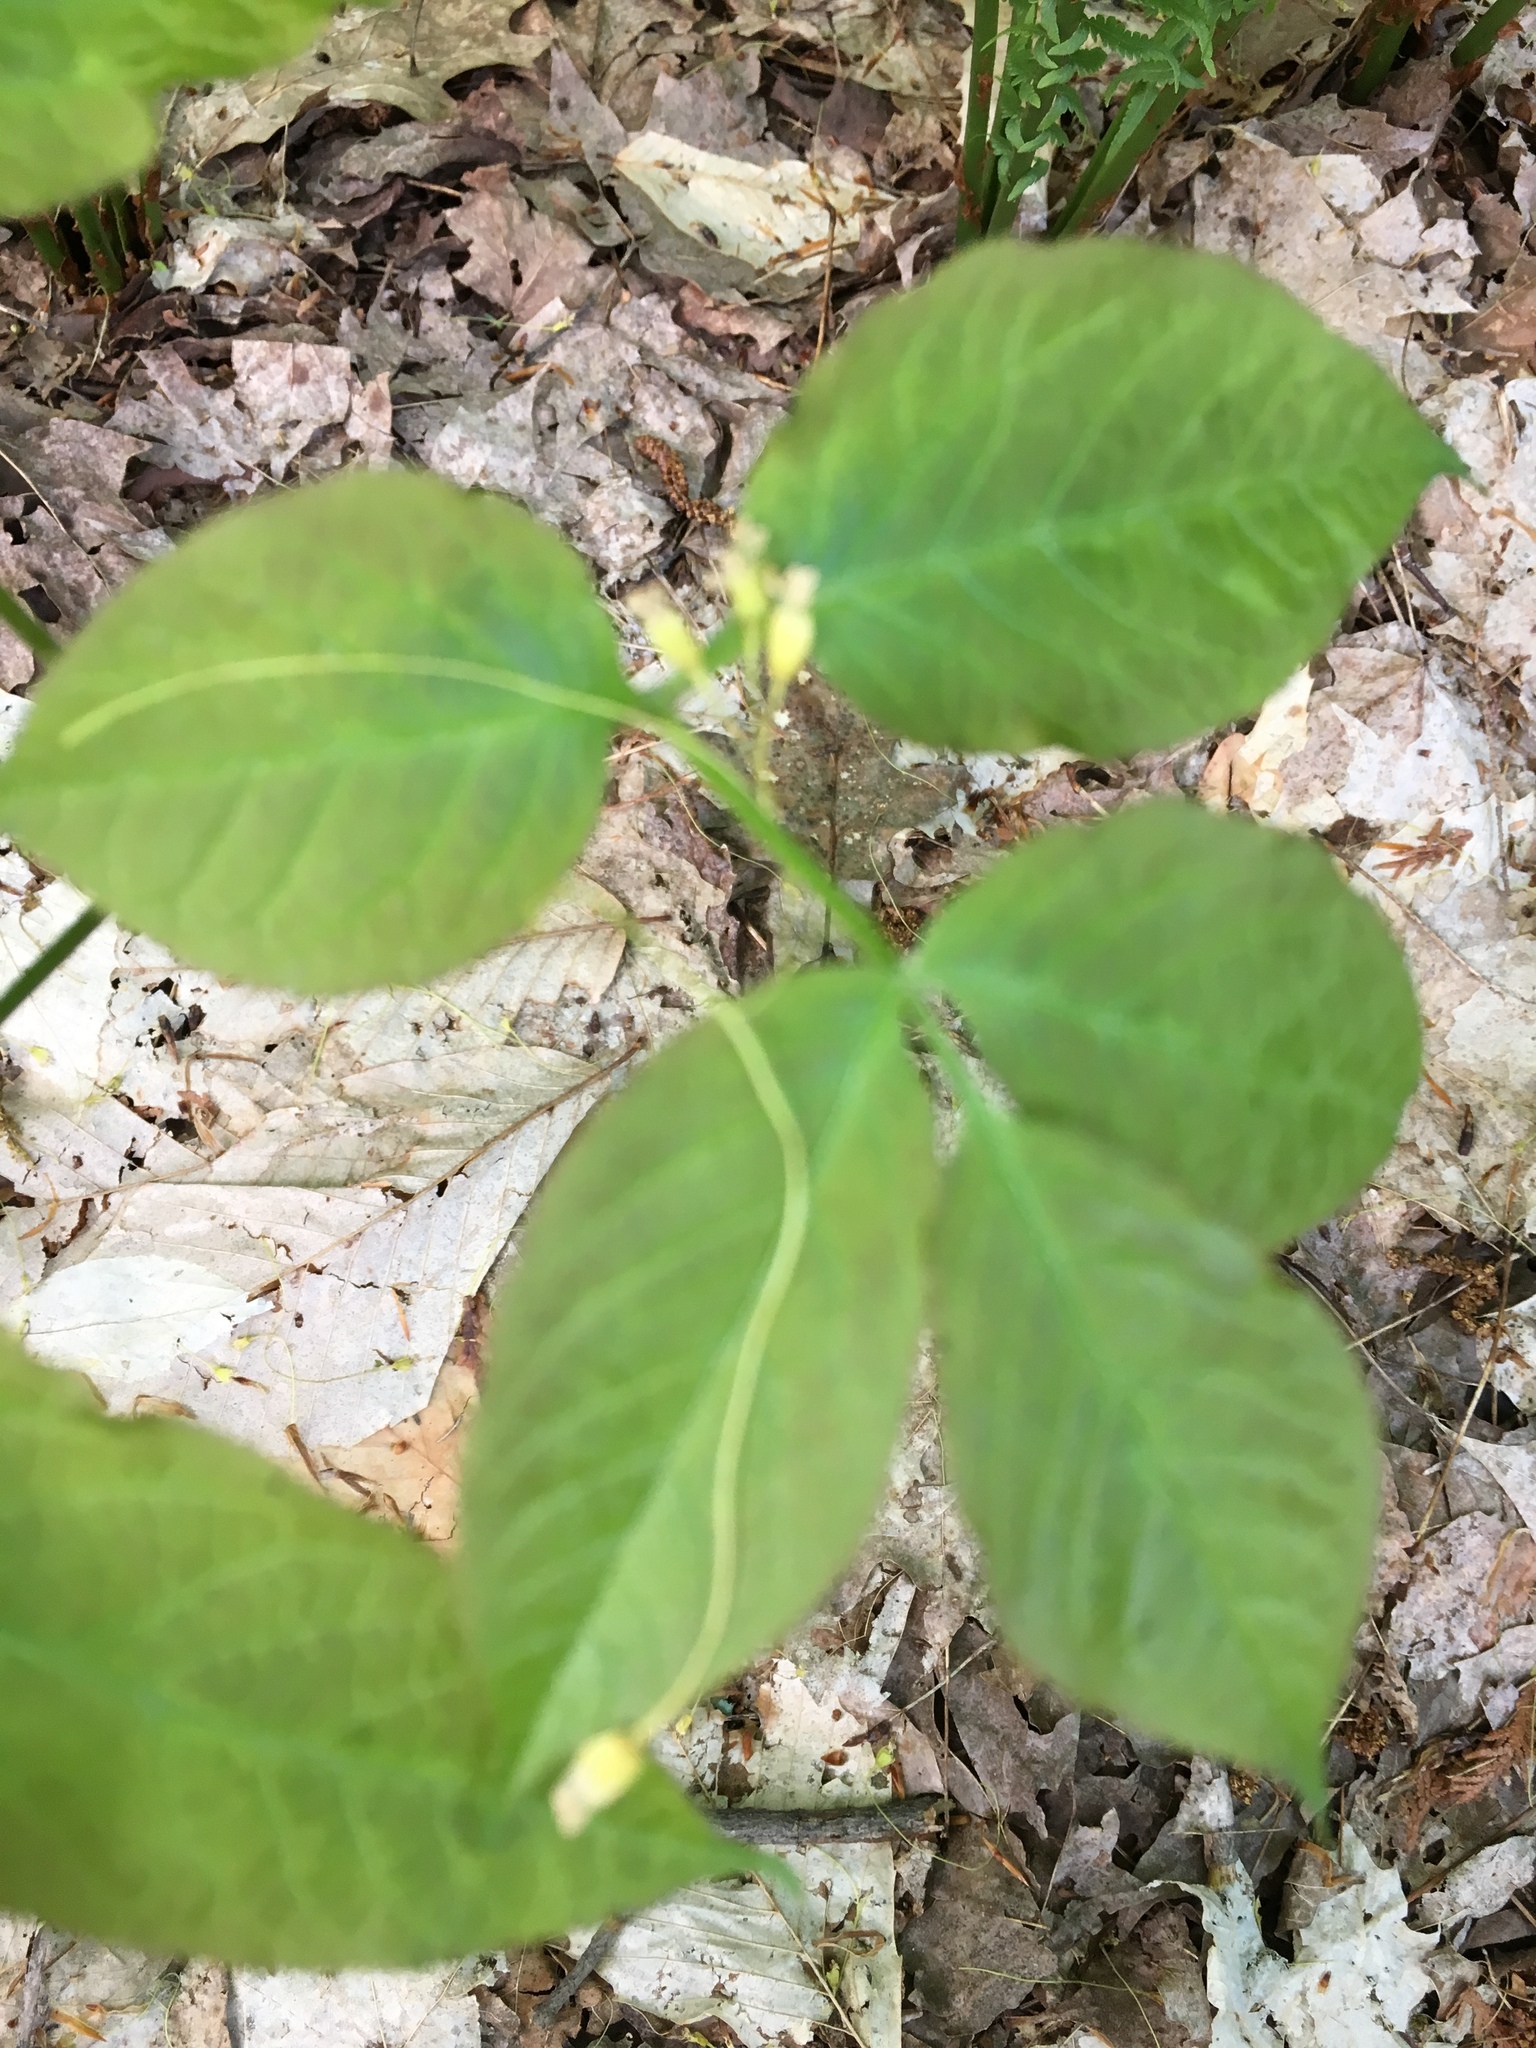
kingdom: Plantae
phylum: Tracheophyta
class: Magnoliopsida
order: Apiales
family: Araliaceae
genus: Aralia
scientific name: Aralia nudicaulis
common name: Wild sarsaparilla
